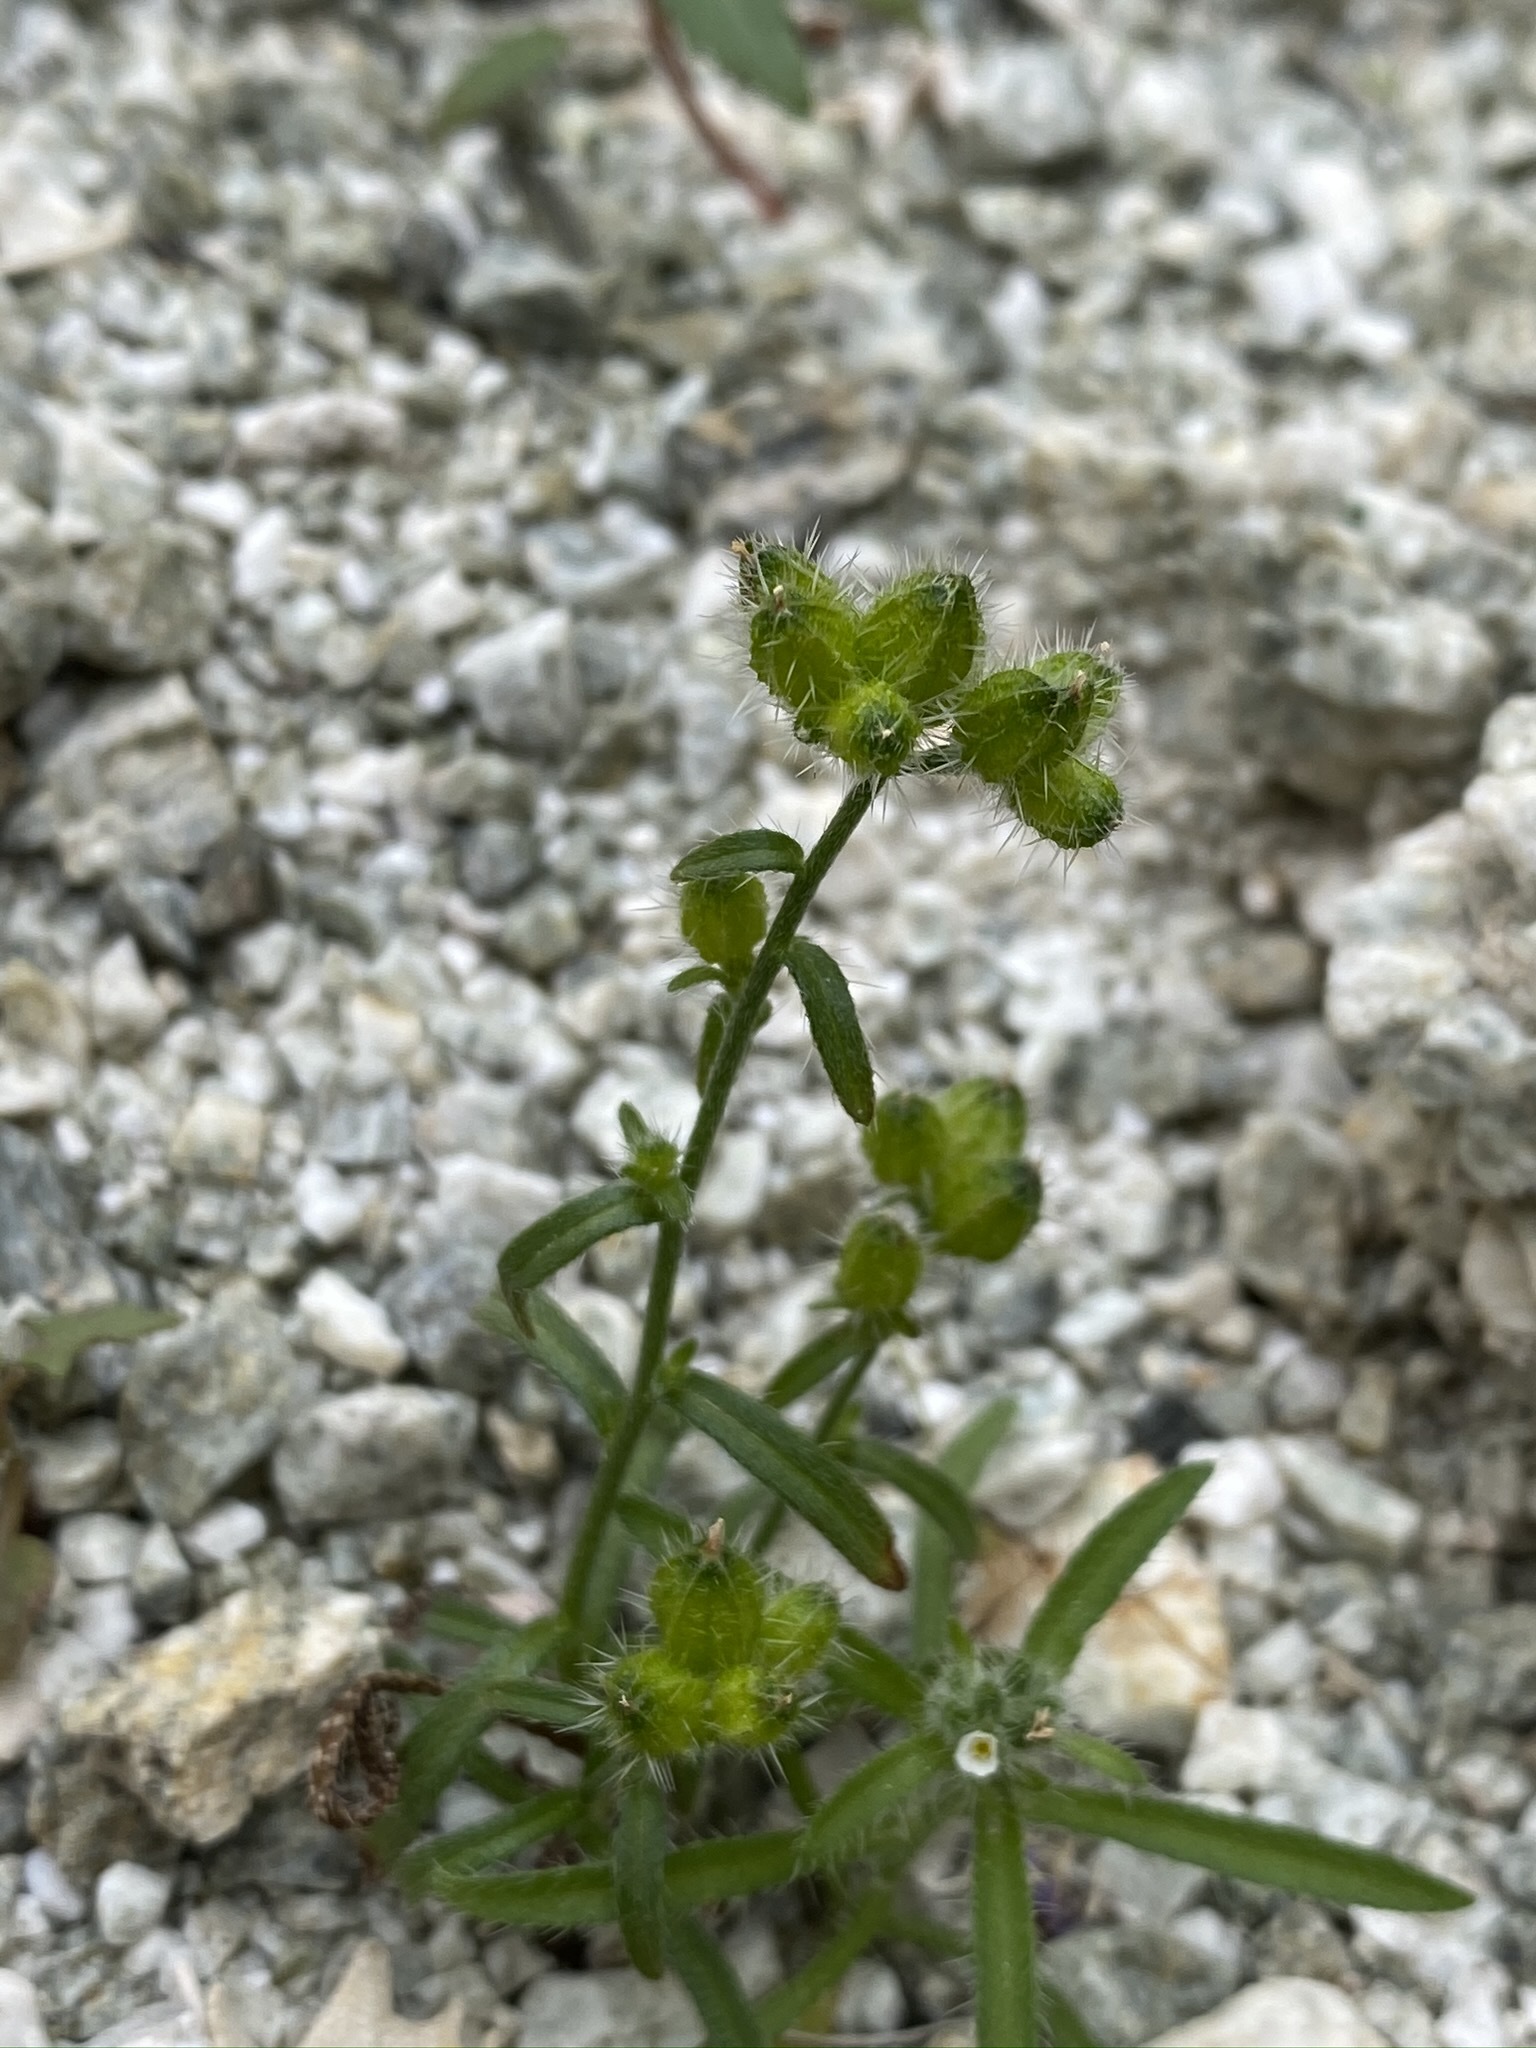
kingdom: Plantae
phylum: Tracheophyta
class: Magnoliopsida
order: Boraginales
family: Boraginaceae
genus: Cryptantha
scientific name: Cryptantha pterocarya
